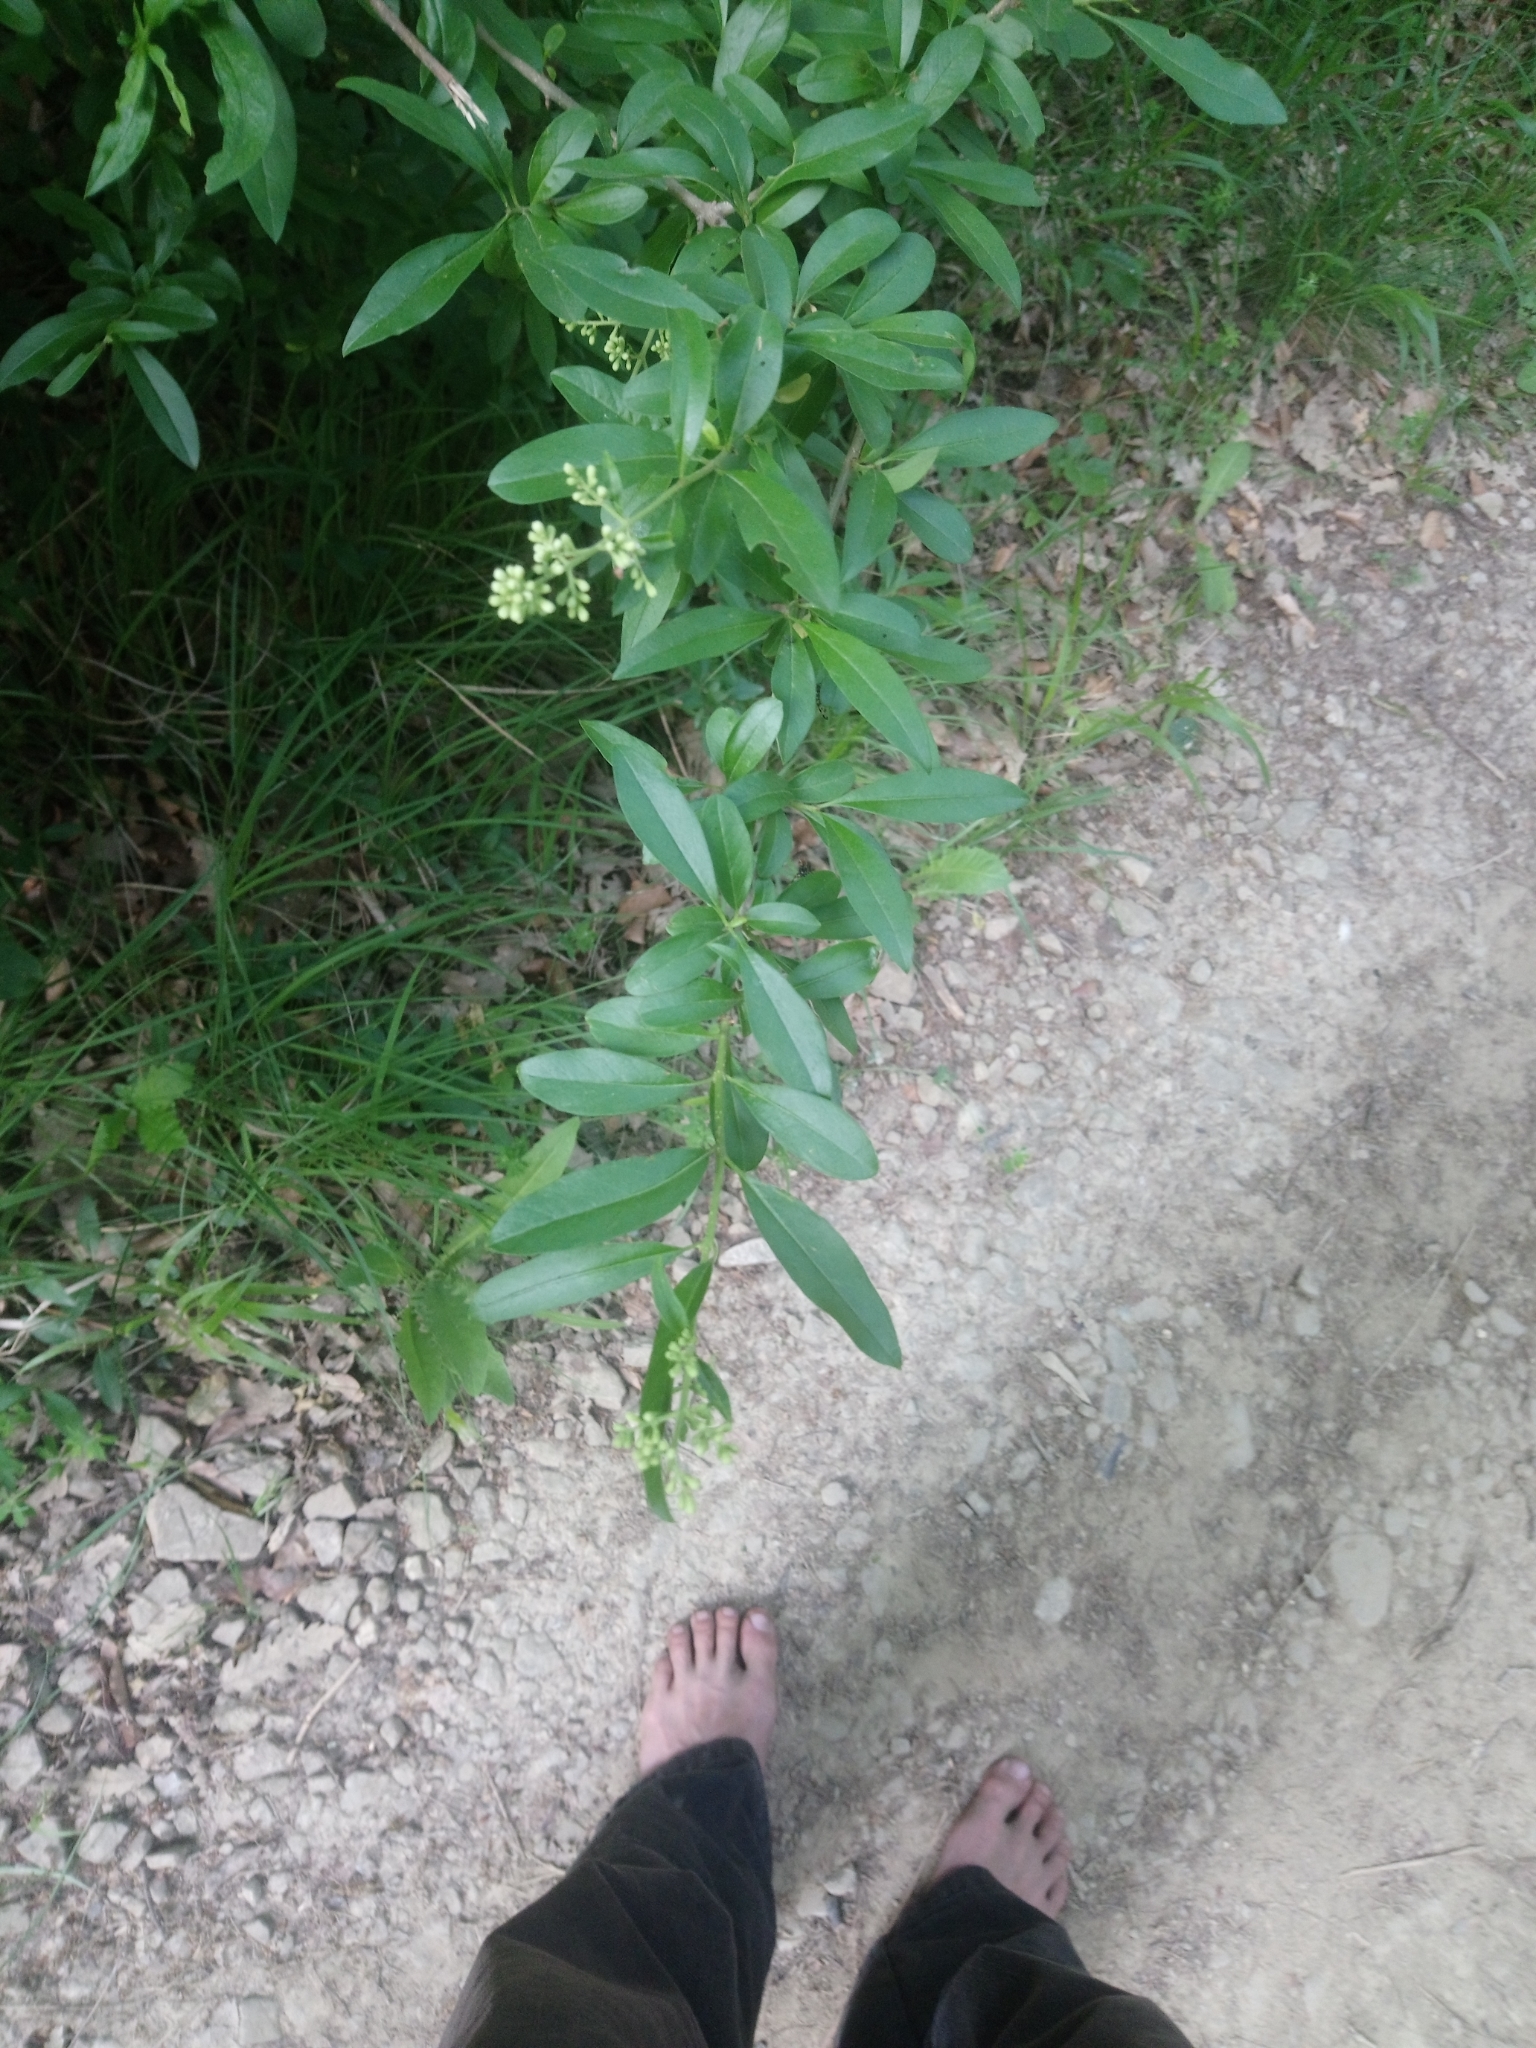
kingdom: Plantae
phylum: Tracheophyta
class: Magnoliopsida
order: Lamiales
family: Oleaceae
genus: Ligustrum
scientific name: Ligustrum vulgare
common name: Wild privet
